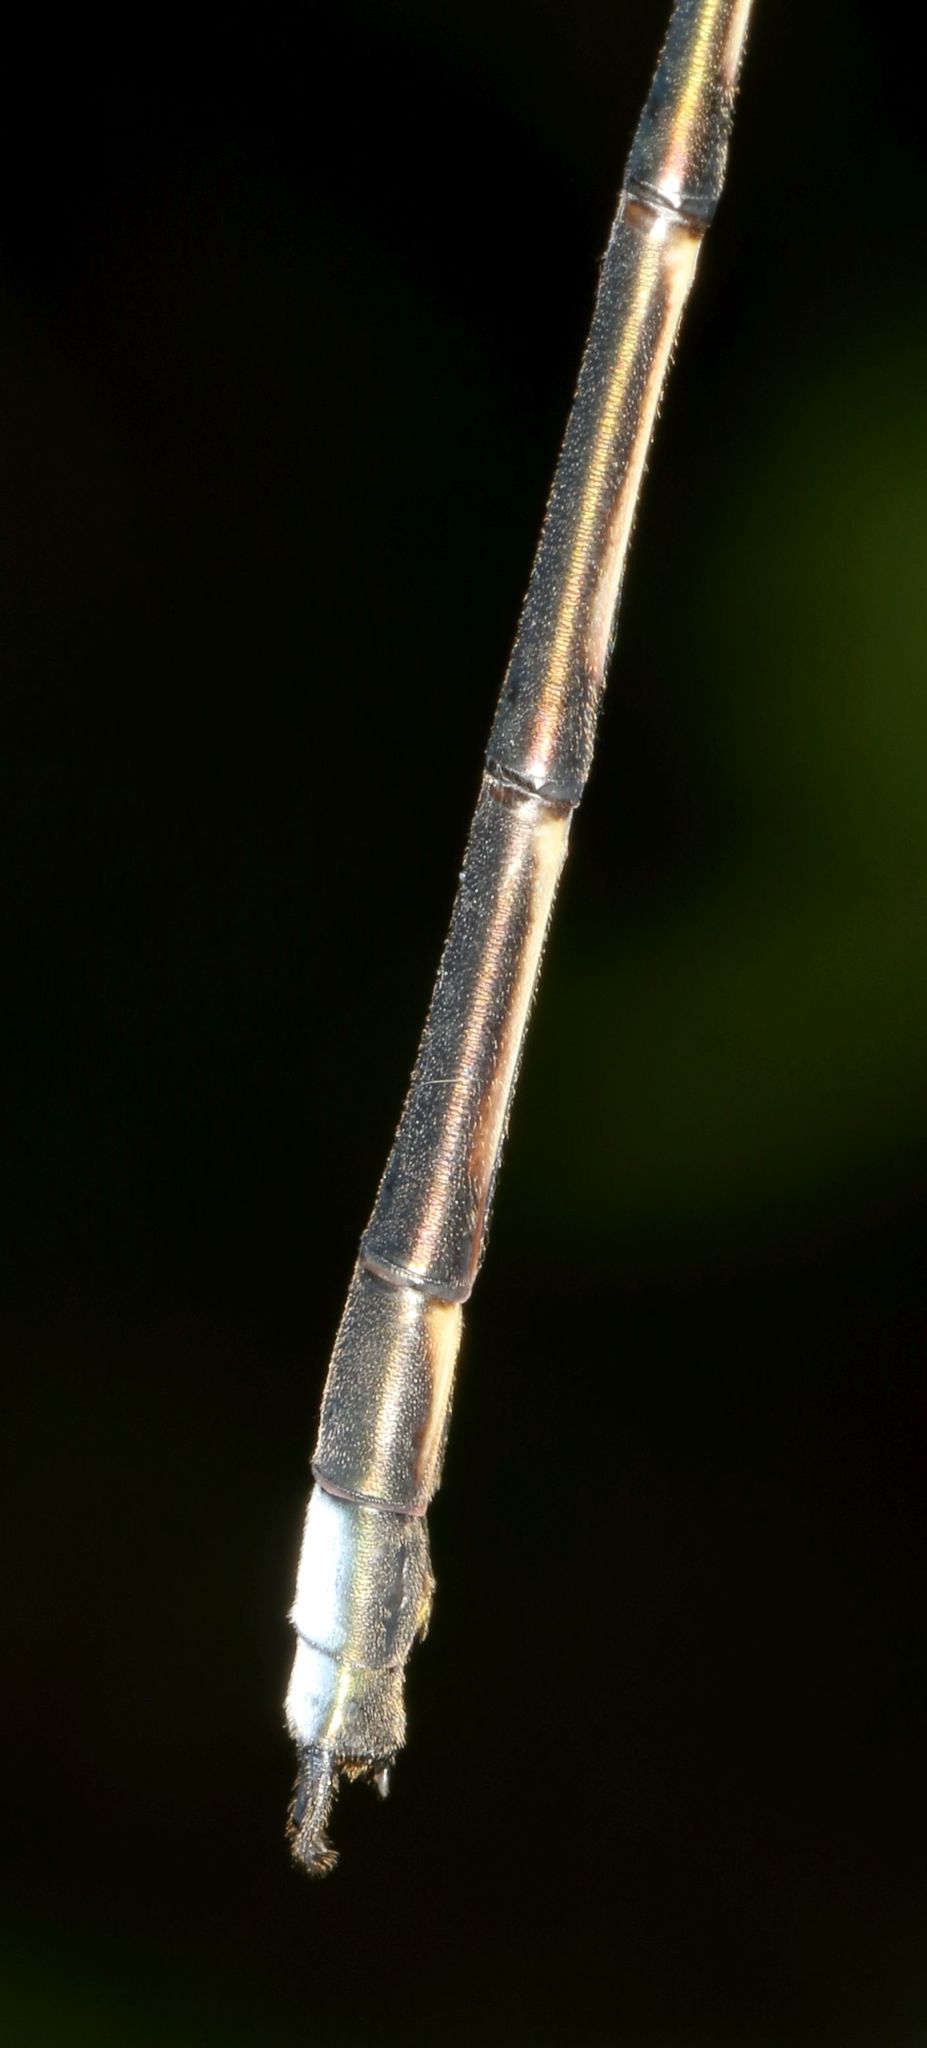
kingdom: Animalia
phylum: Arthropoda
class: Insecta
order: Odonata
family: Synlestidae
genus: Chlorolestes
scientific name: Chlorolestes tessellatus
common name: Forest malachite
